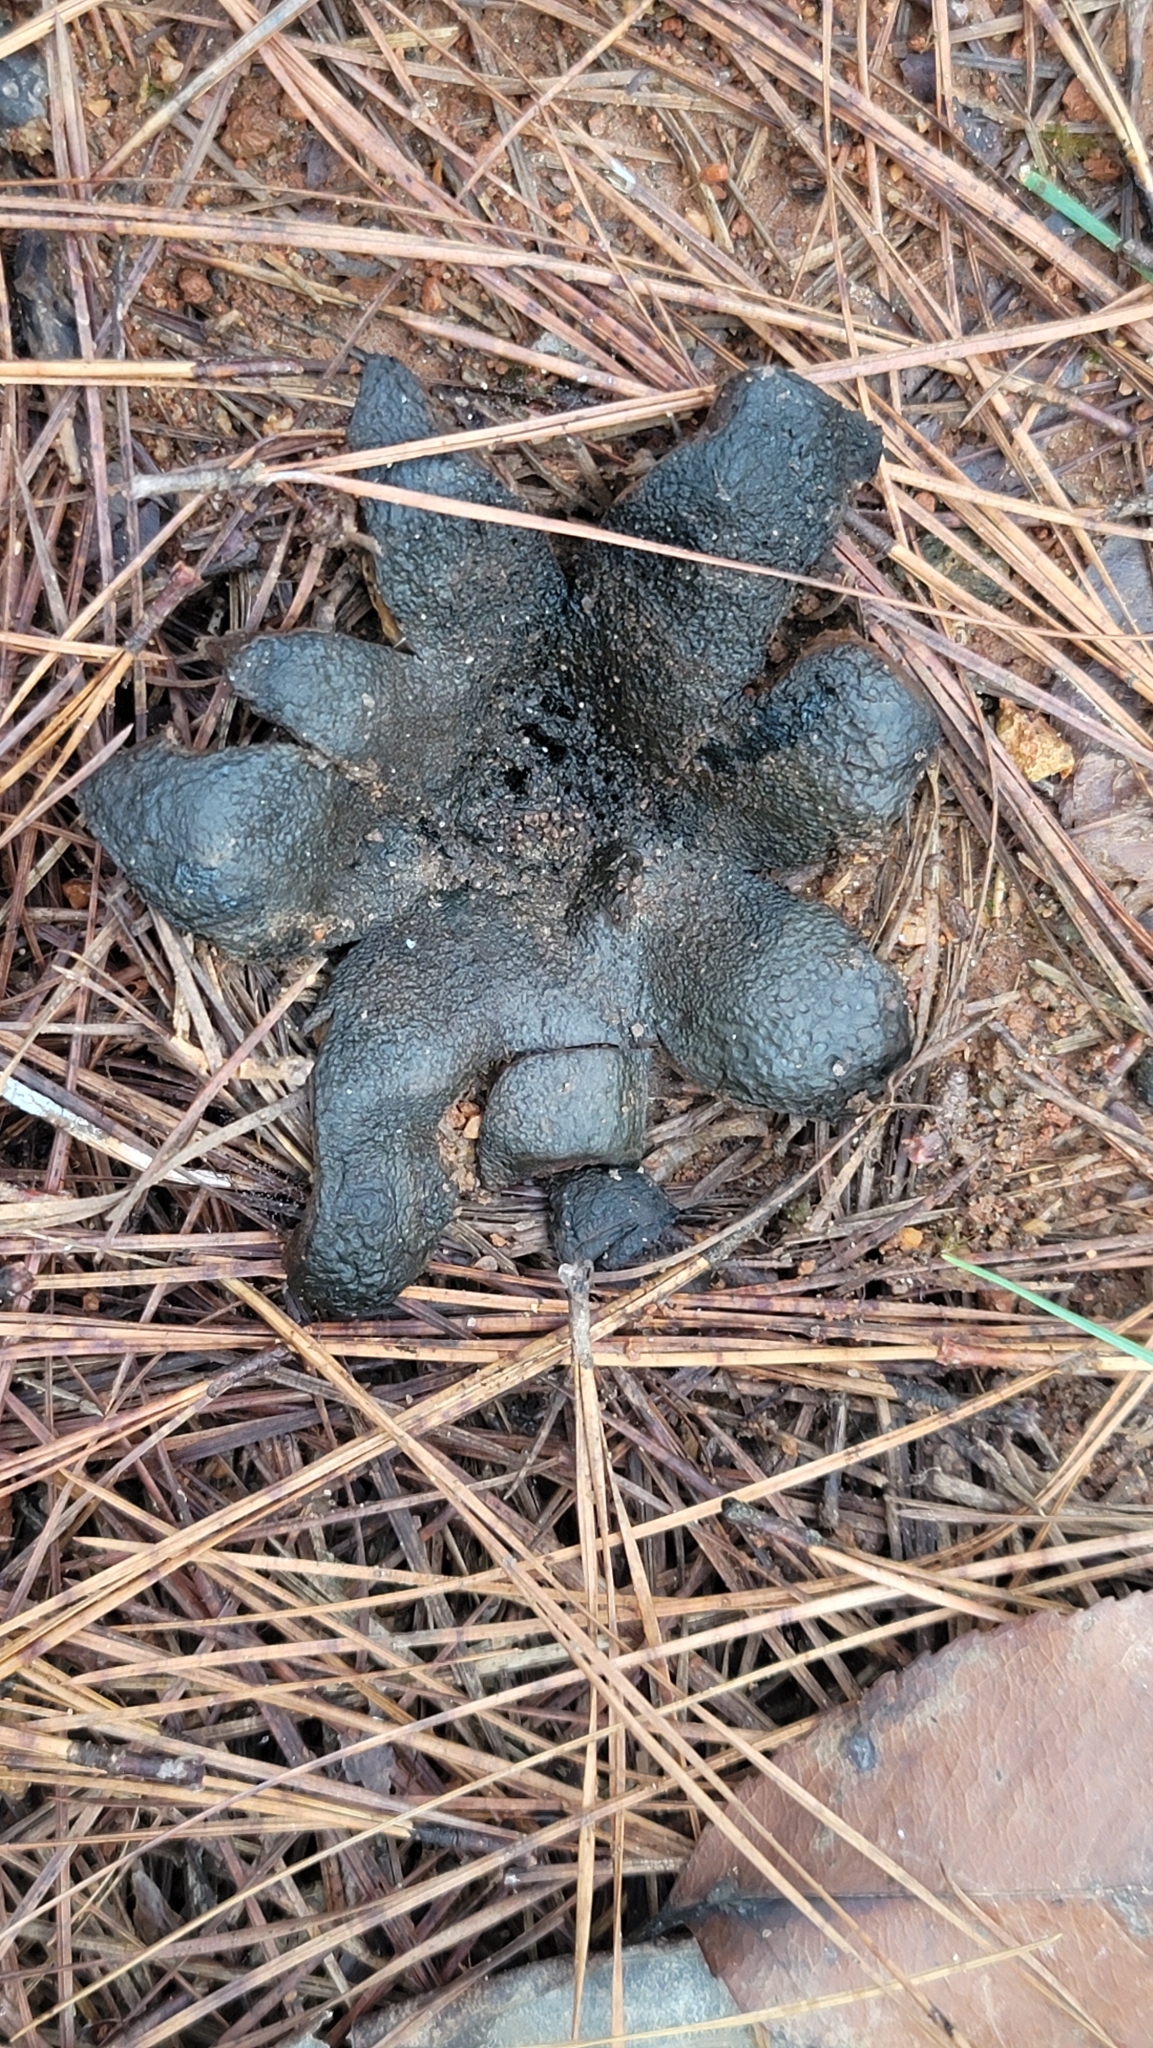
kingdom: Fungi
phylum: Basidiomycota
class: Agaricomycetes
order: Boletales
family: Sclerodermataceae
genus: Scleroderma
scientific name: Scleroderma polyrhizum
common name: Many-rooted earthball
